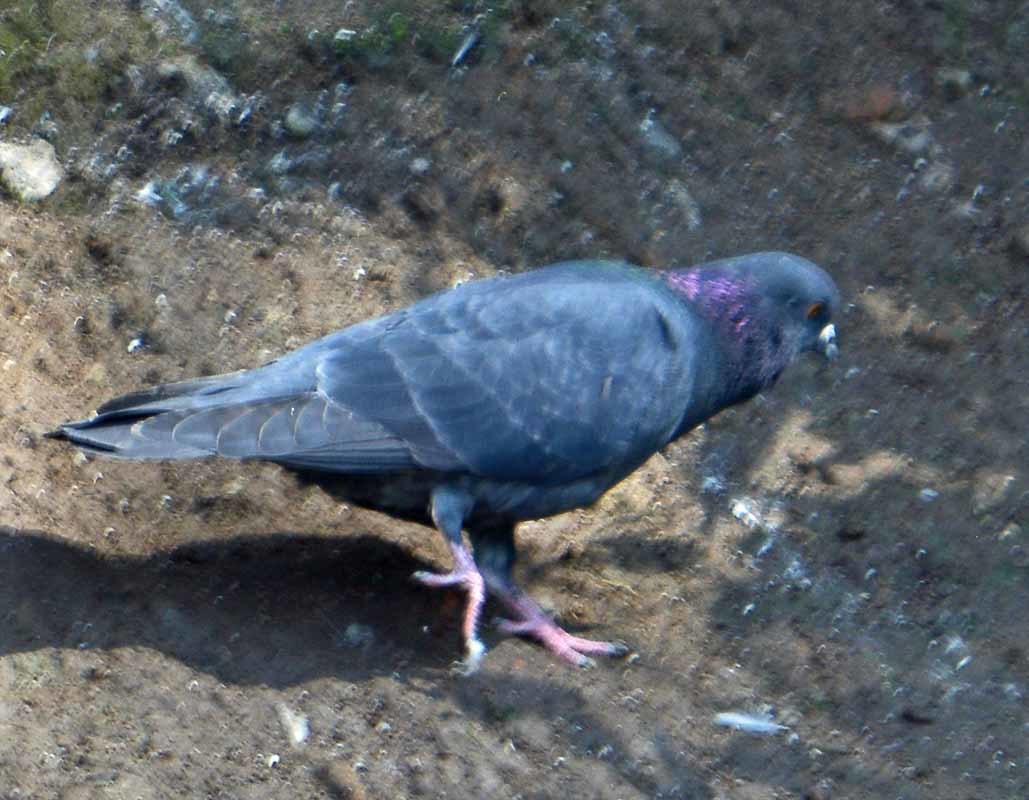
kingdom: Animalia
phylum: Chordata
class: Aves
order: Columbiformes
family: Columbidae
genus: Columba
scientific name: Columba livia
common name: Rock pigeon
